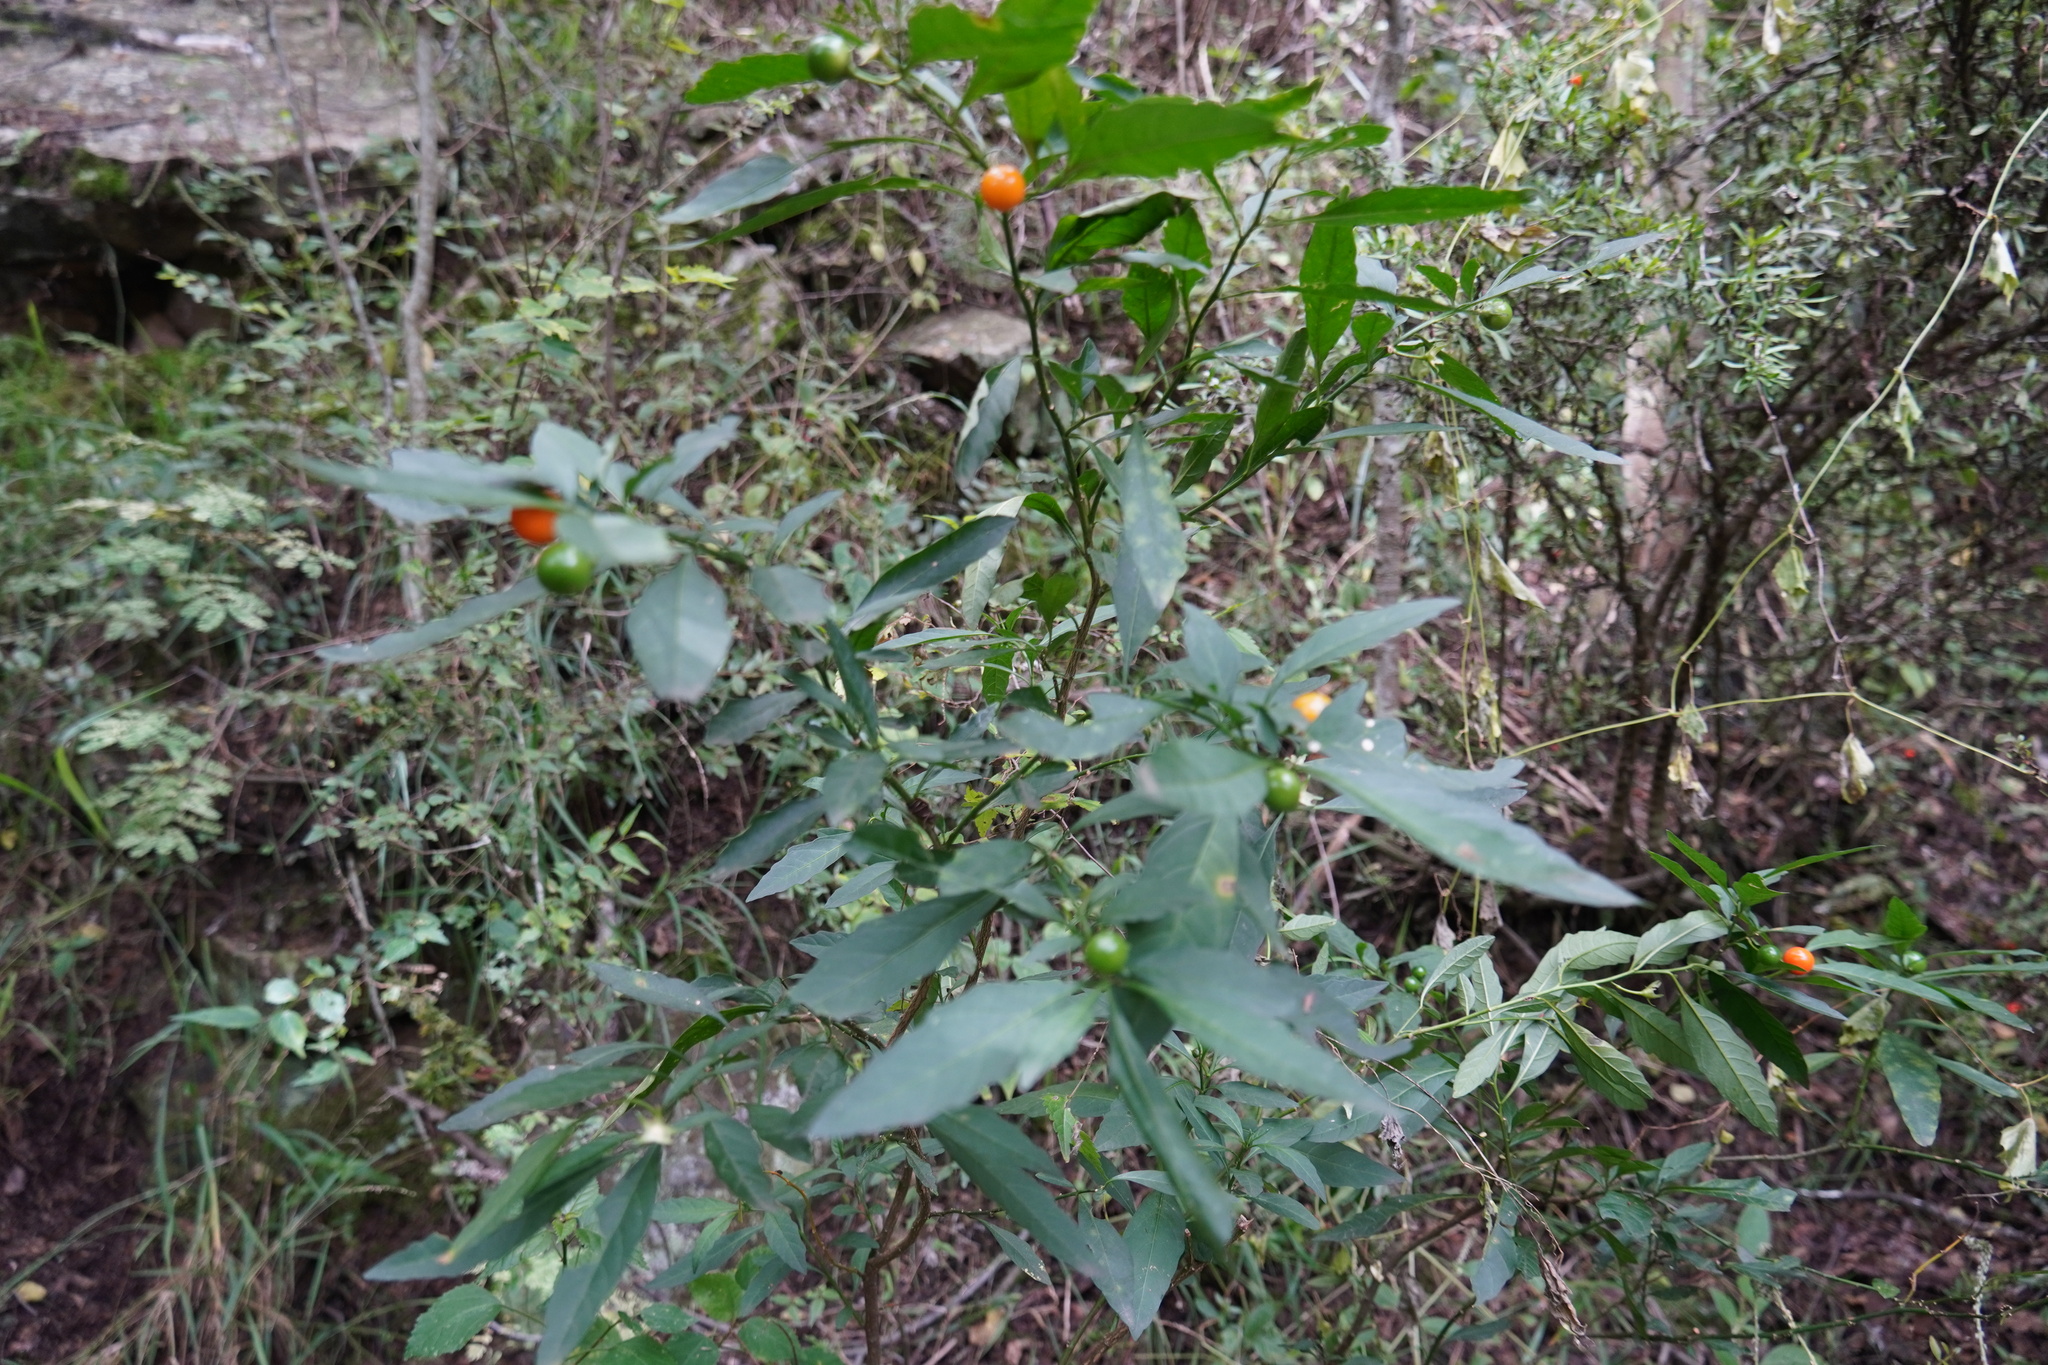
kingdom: Plantae
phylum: Tracheophyta
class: Magnoliopsida
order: Solanales
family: Solanaceae
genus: Solanum
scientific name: Solanum pseudocapsicum
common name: Jerusalem cherry
